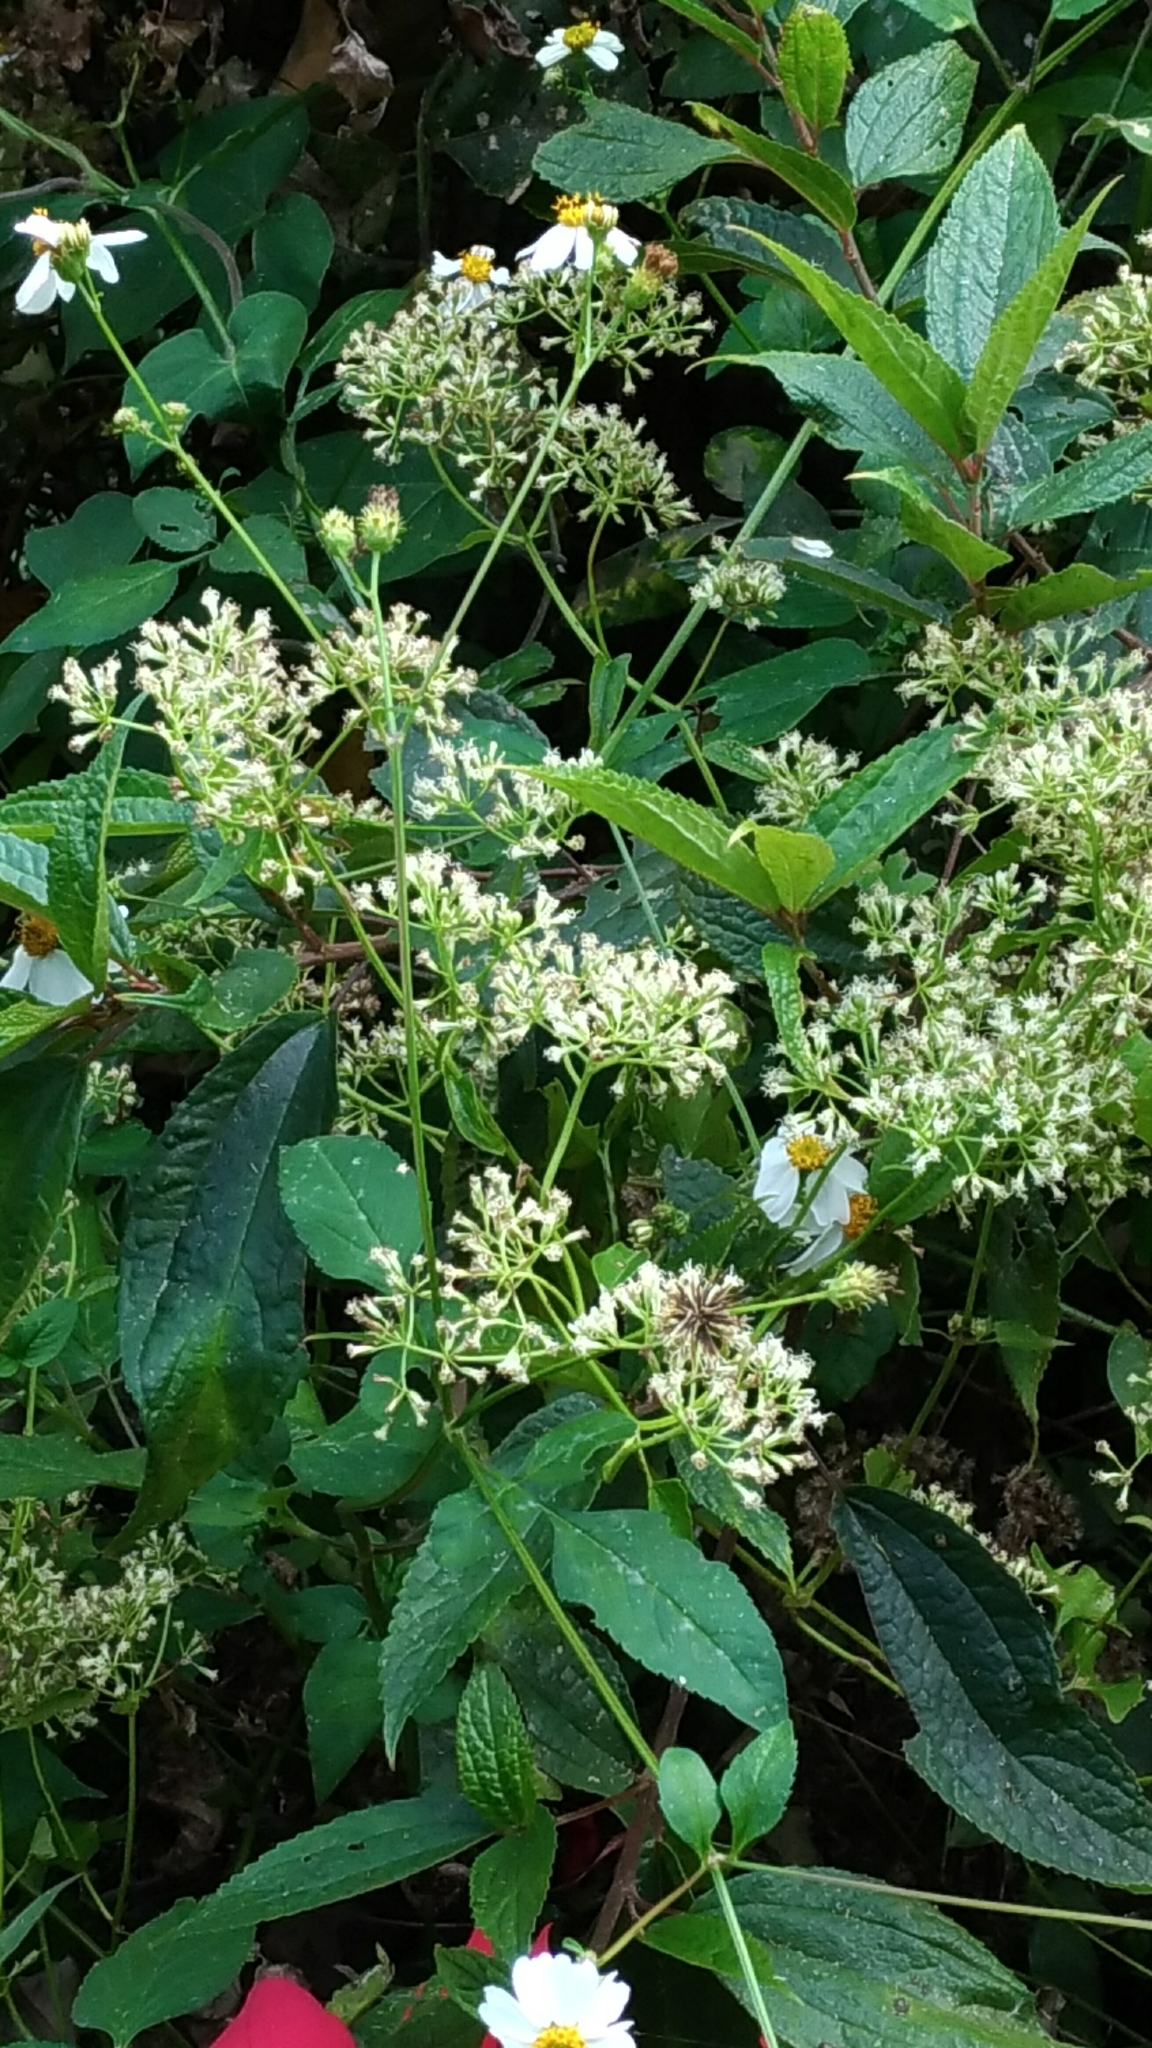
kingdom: Plantae
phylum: Tracheophyta
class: Magnoliopsida
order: Asterales
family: Asteraceae
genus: Mikania
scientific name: Mikania micrantha
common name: Mile-a-minute
